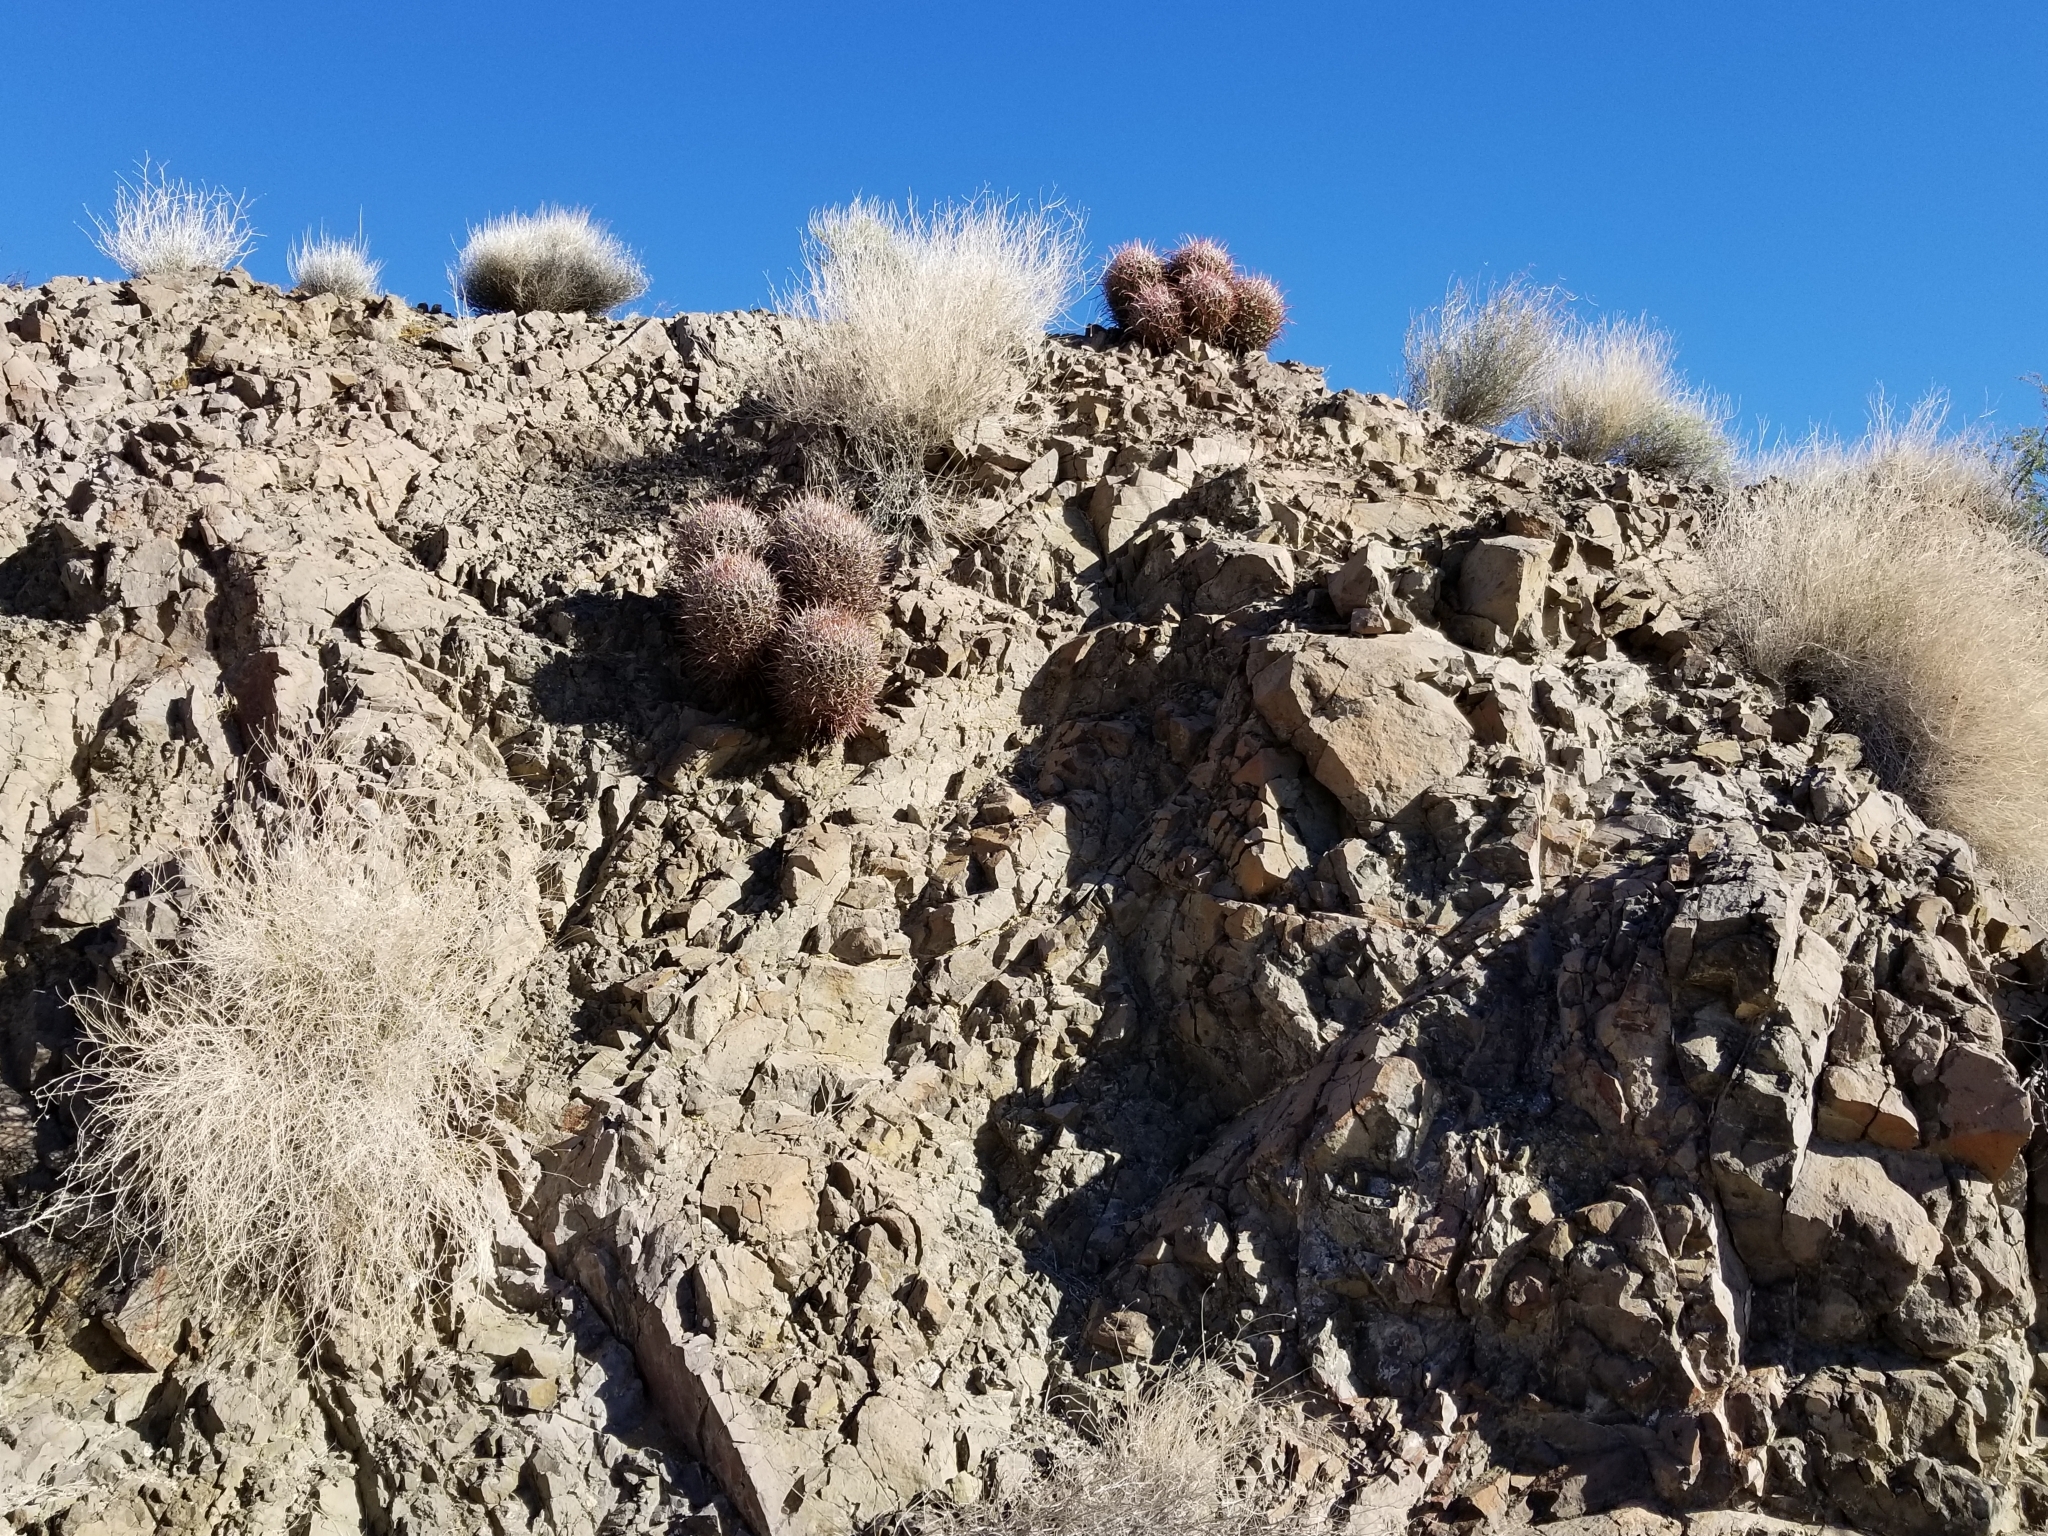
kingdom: Plantae
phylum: Tracheophyta
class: Magnoliopsida
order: Caryophyllales
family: Cactaceae
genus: Echinocactus
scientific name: Echinocactus polycephalus
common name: Cottontop cactus
